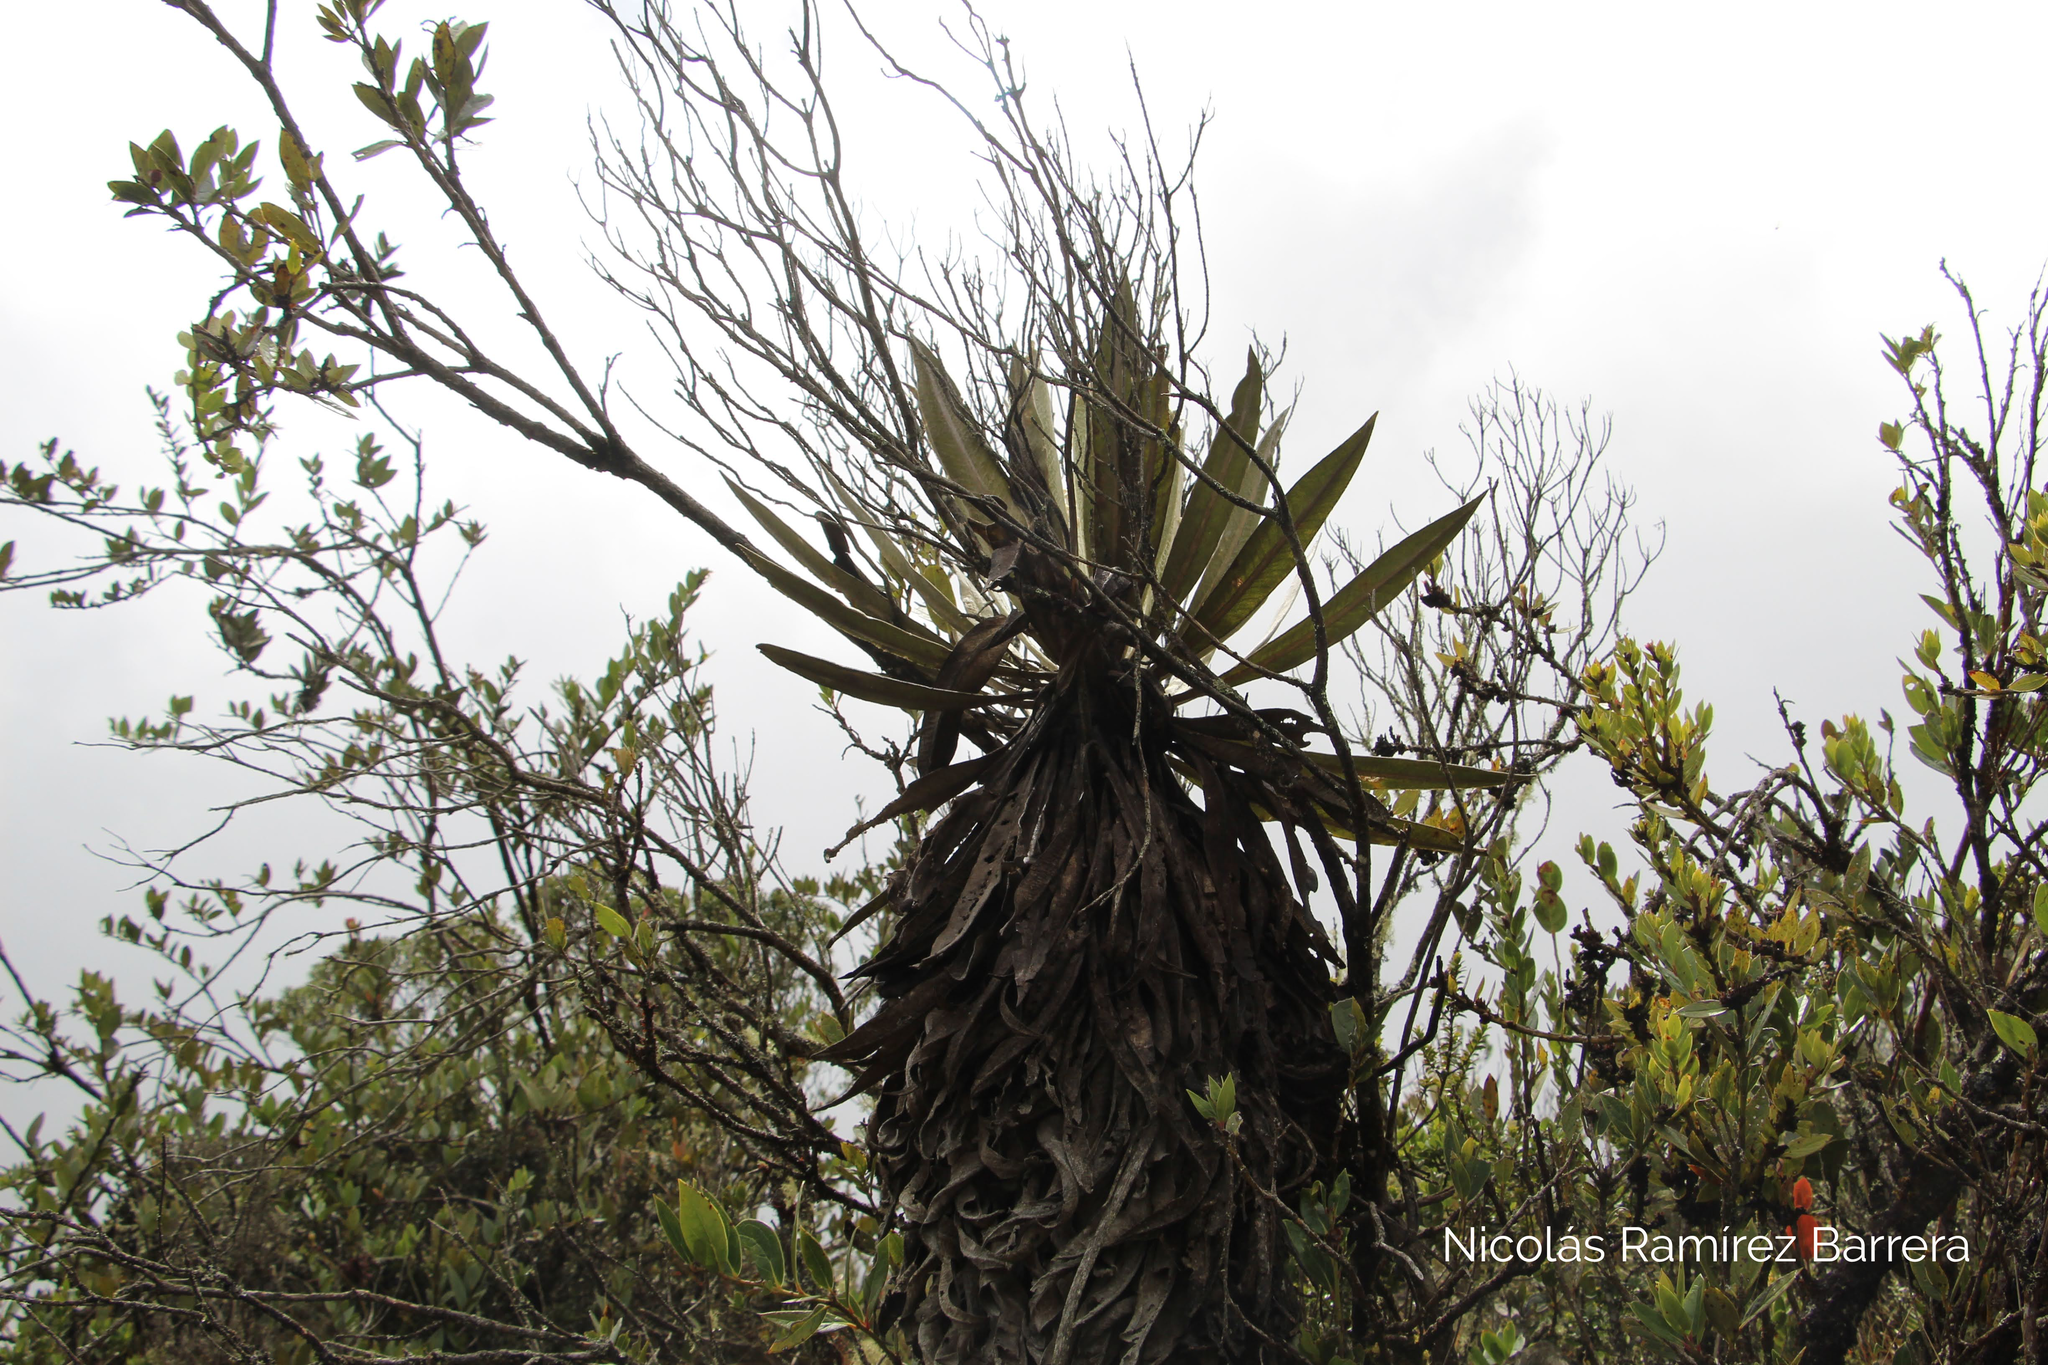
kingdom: Plantae
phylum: Tracheophyta
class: Magnoliopsida
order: Asterales
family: Asteraceae
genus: Espeletia
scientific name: Espeletia grandiflora
